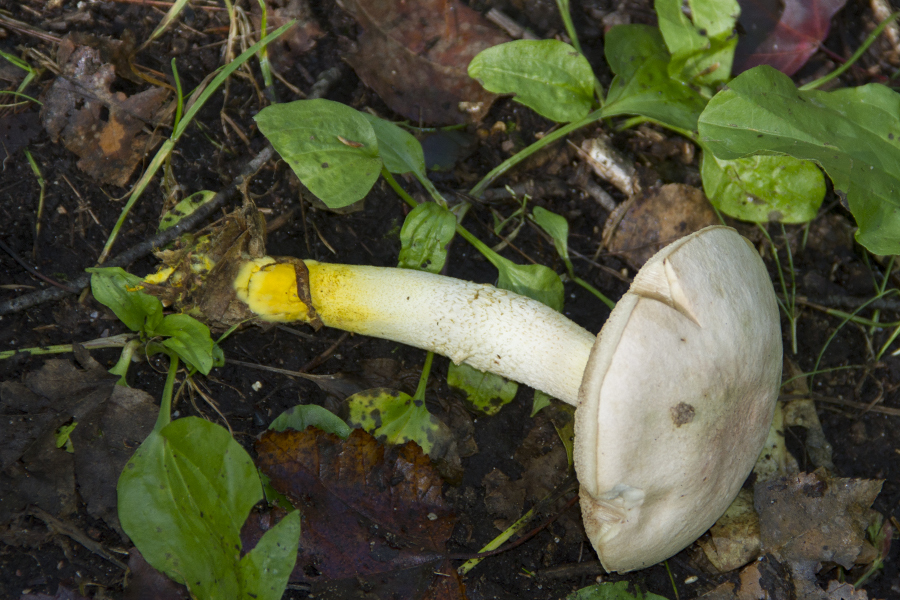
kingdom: Fungi
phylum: Basidiomycota
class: Agaricomycetes
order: Boletales
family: Boletaceae
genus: Harrya
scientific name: Harrya chromipes
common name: Chrome-footed bolete
